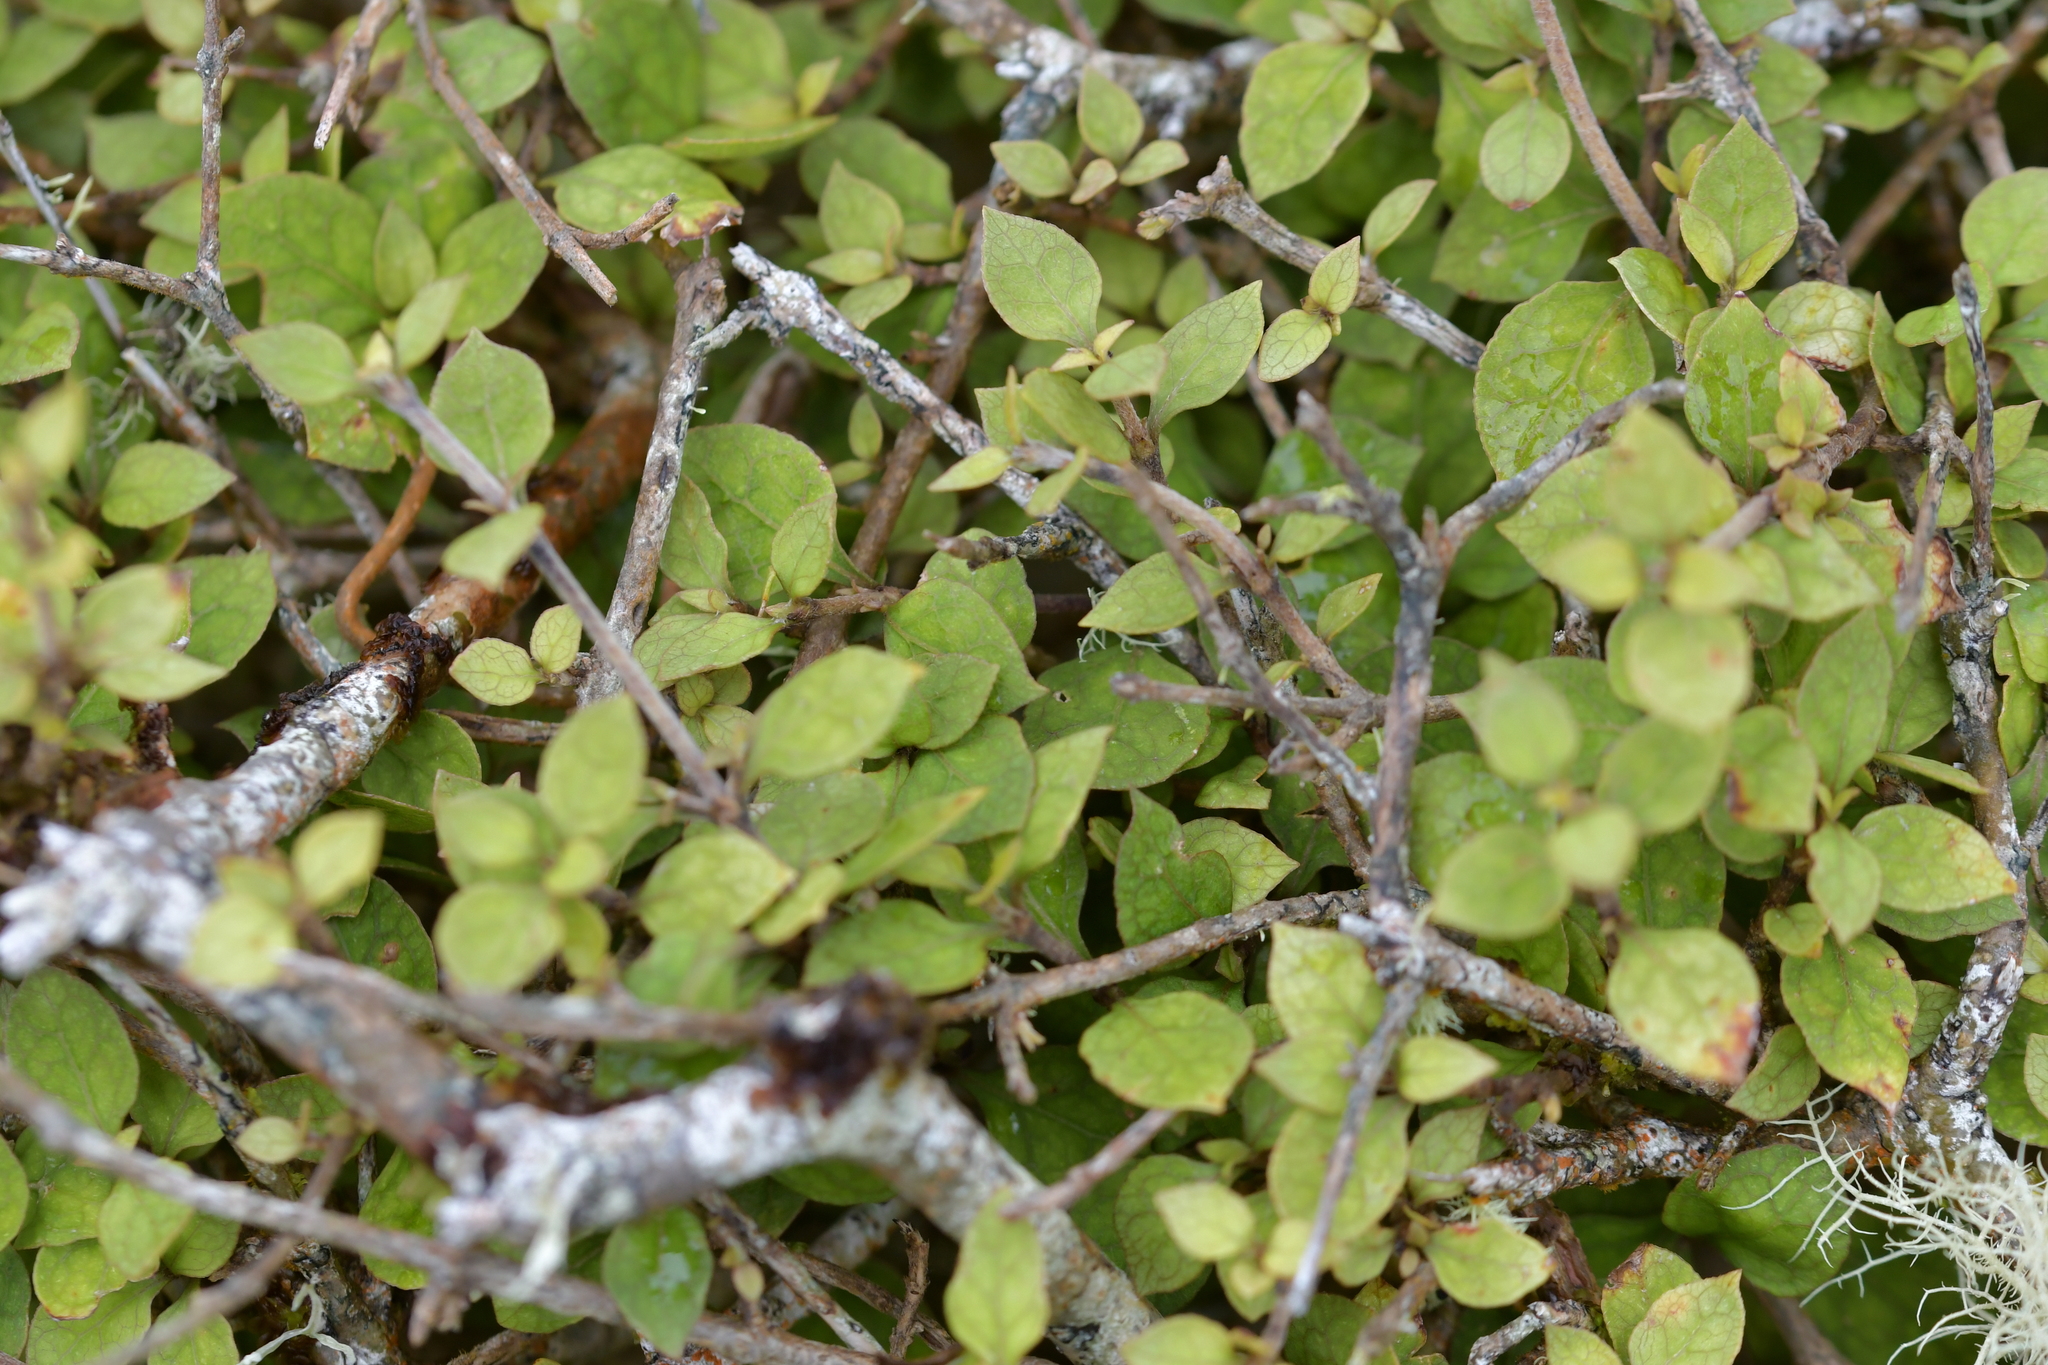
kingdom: Plantae
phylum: Tracheophyta
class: Magnoliopsida
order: Gentianales
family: Rubiaceae
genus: Coprosma
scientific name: Coprosma areolata
